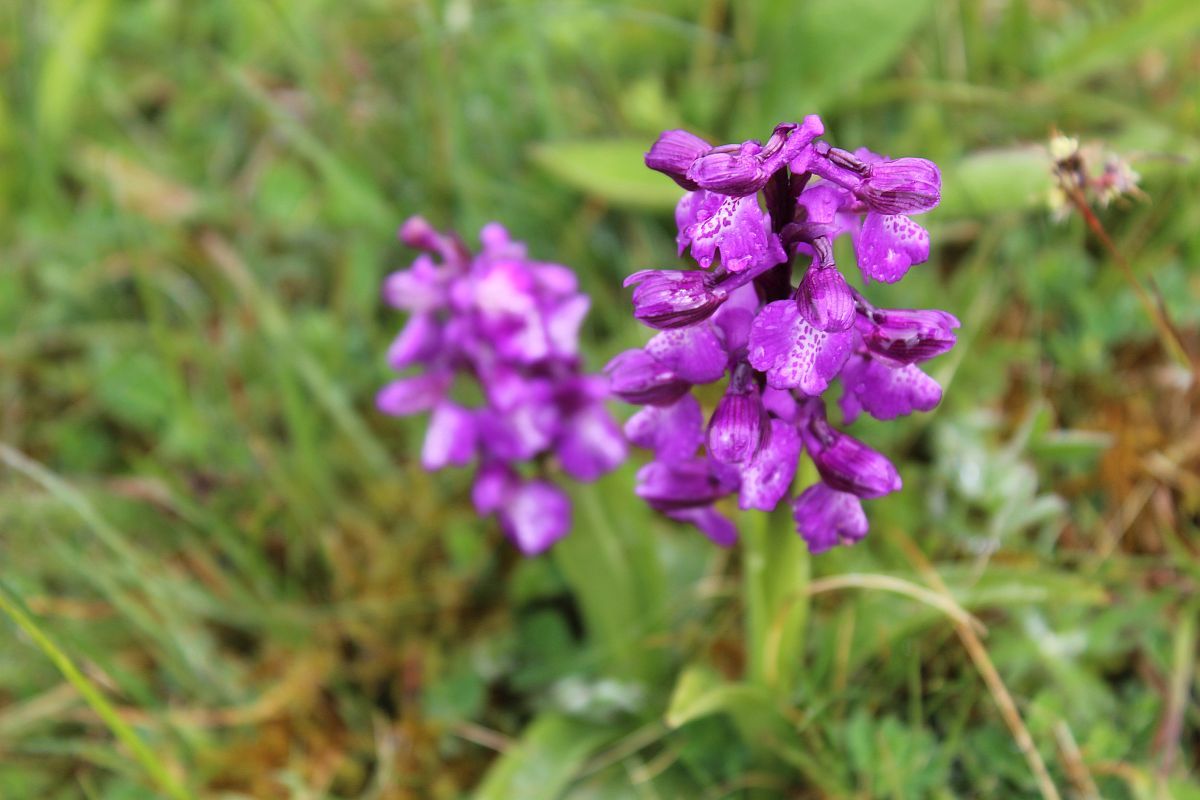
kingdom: Plantae
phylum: Tracheophyta
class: Liliopsida
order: Asparagales
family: Orchidaceae
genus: Anacamptis
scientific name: Anacamptis morio
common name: Green-winged orchid
